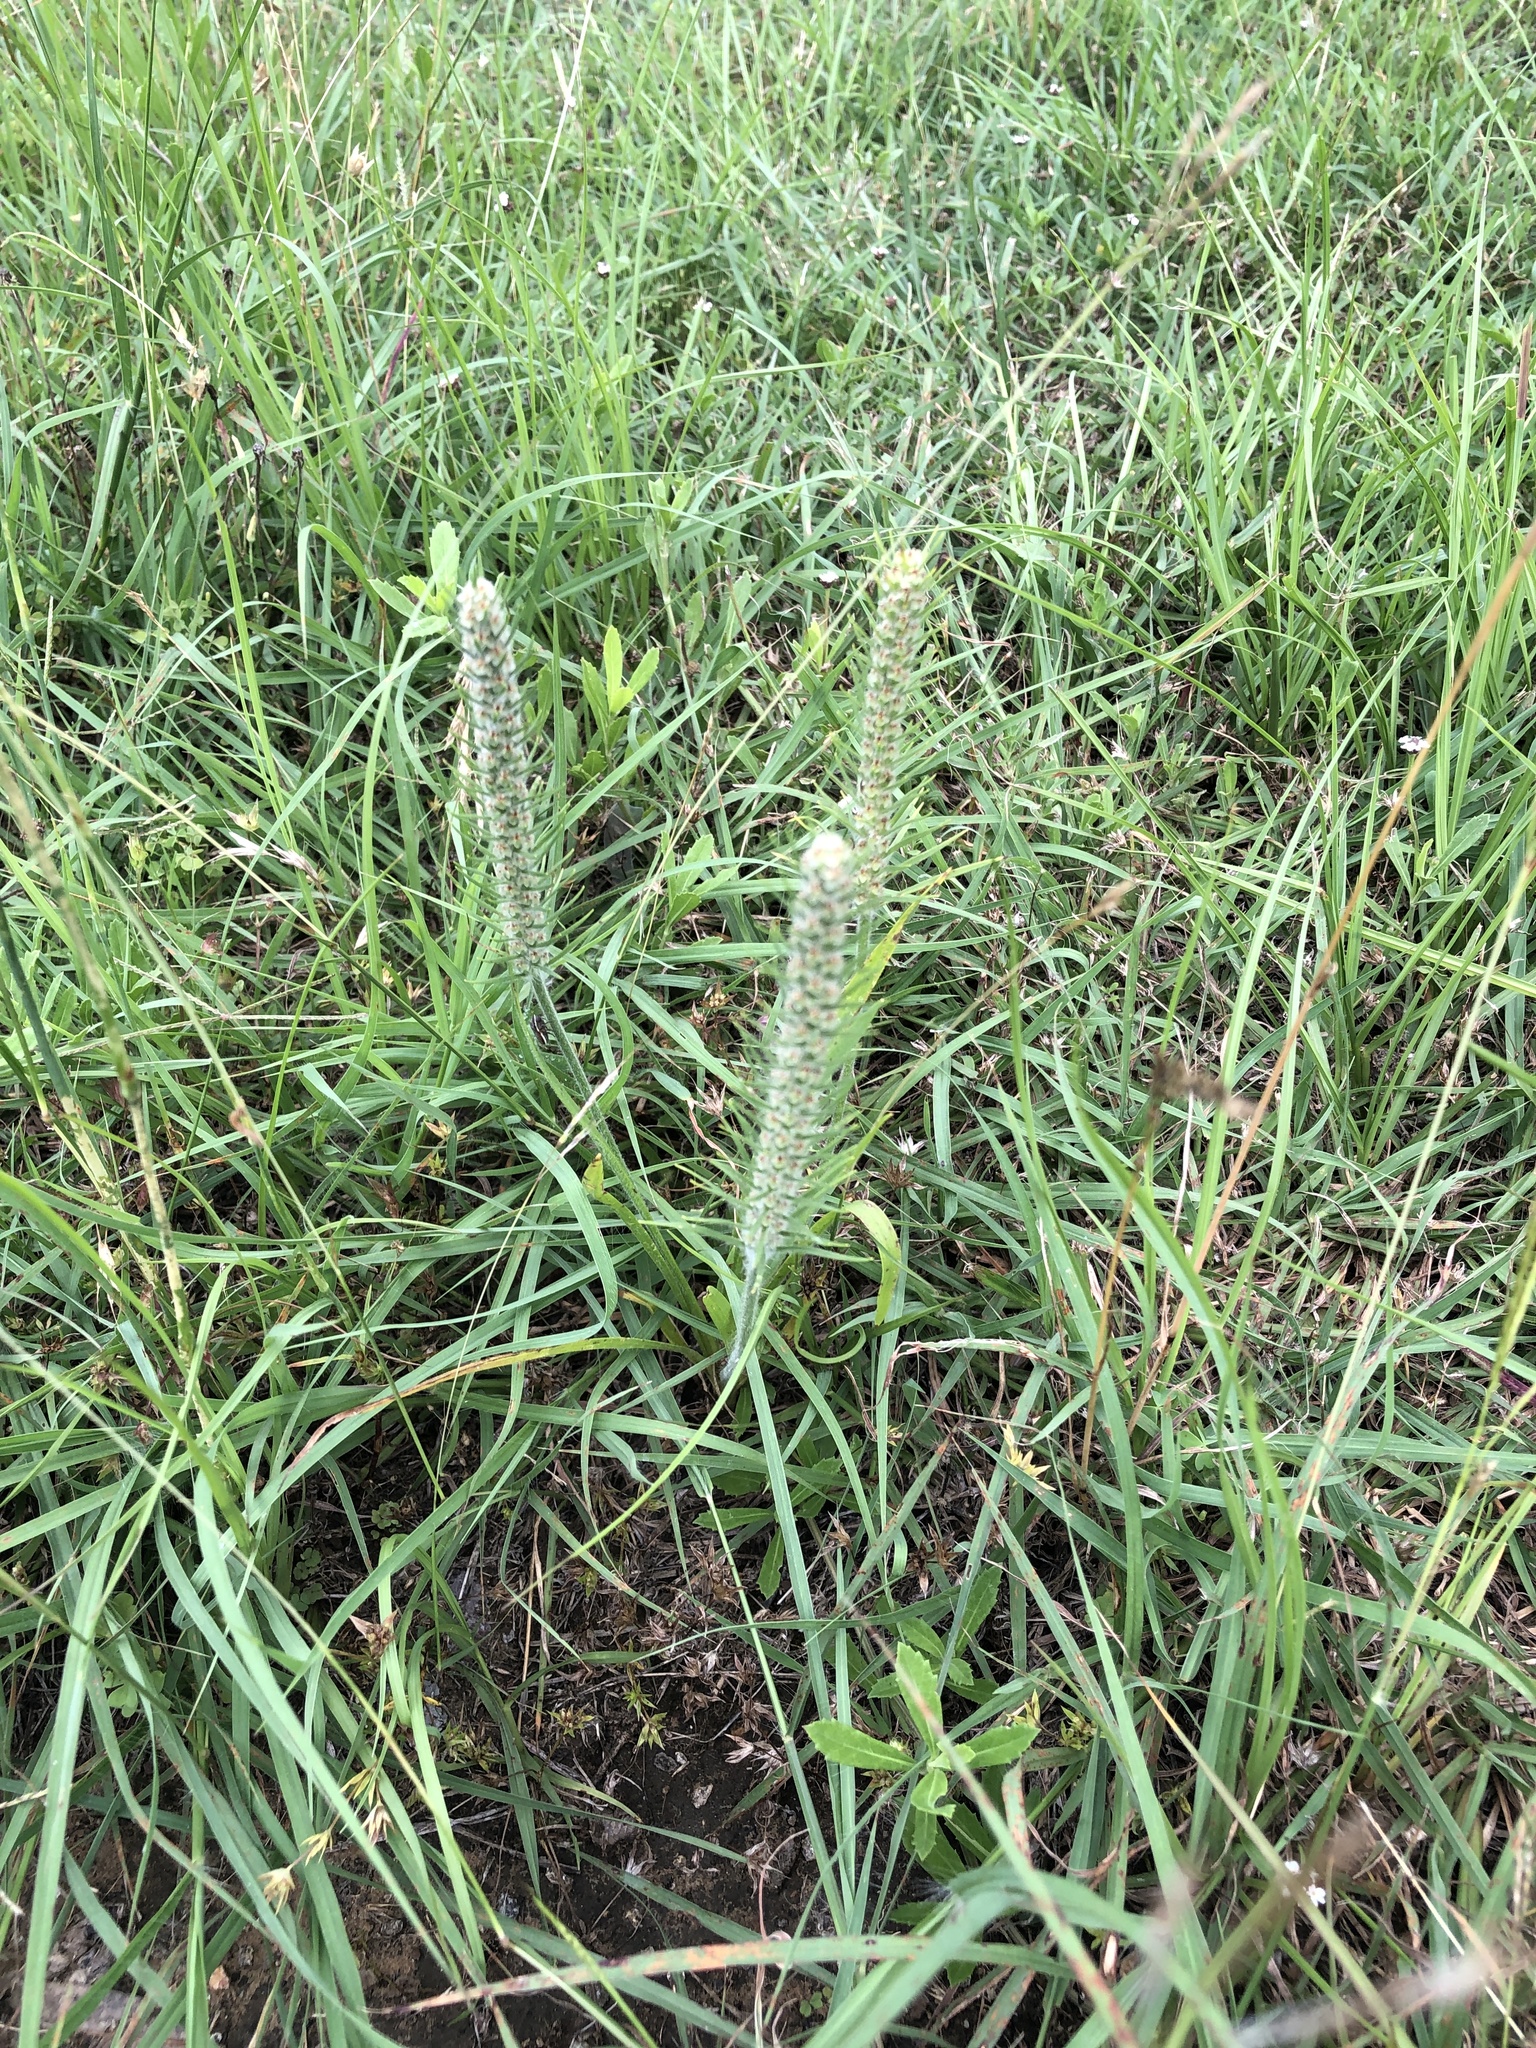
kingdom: Plantae
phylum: Tracheophyta
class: Magnoliopsida
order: Lamiales
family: Plantaginaceae
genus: Plantago
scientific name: Plantago aristata
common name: Bracted plantain
